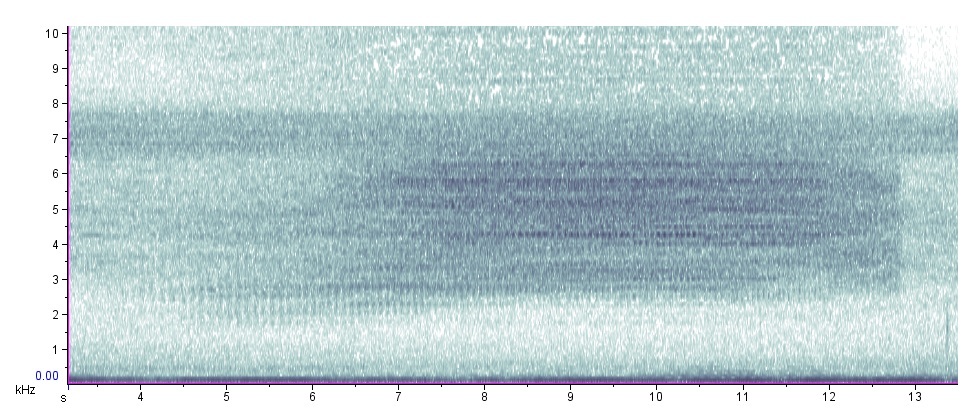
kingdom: Animalia
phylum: Arthropoda
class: Insecta
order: Hemiptera
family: Cicadidae
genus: Neotibicen
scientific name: Neotibicen tibicen
